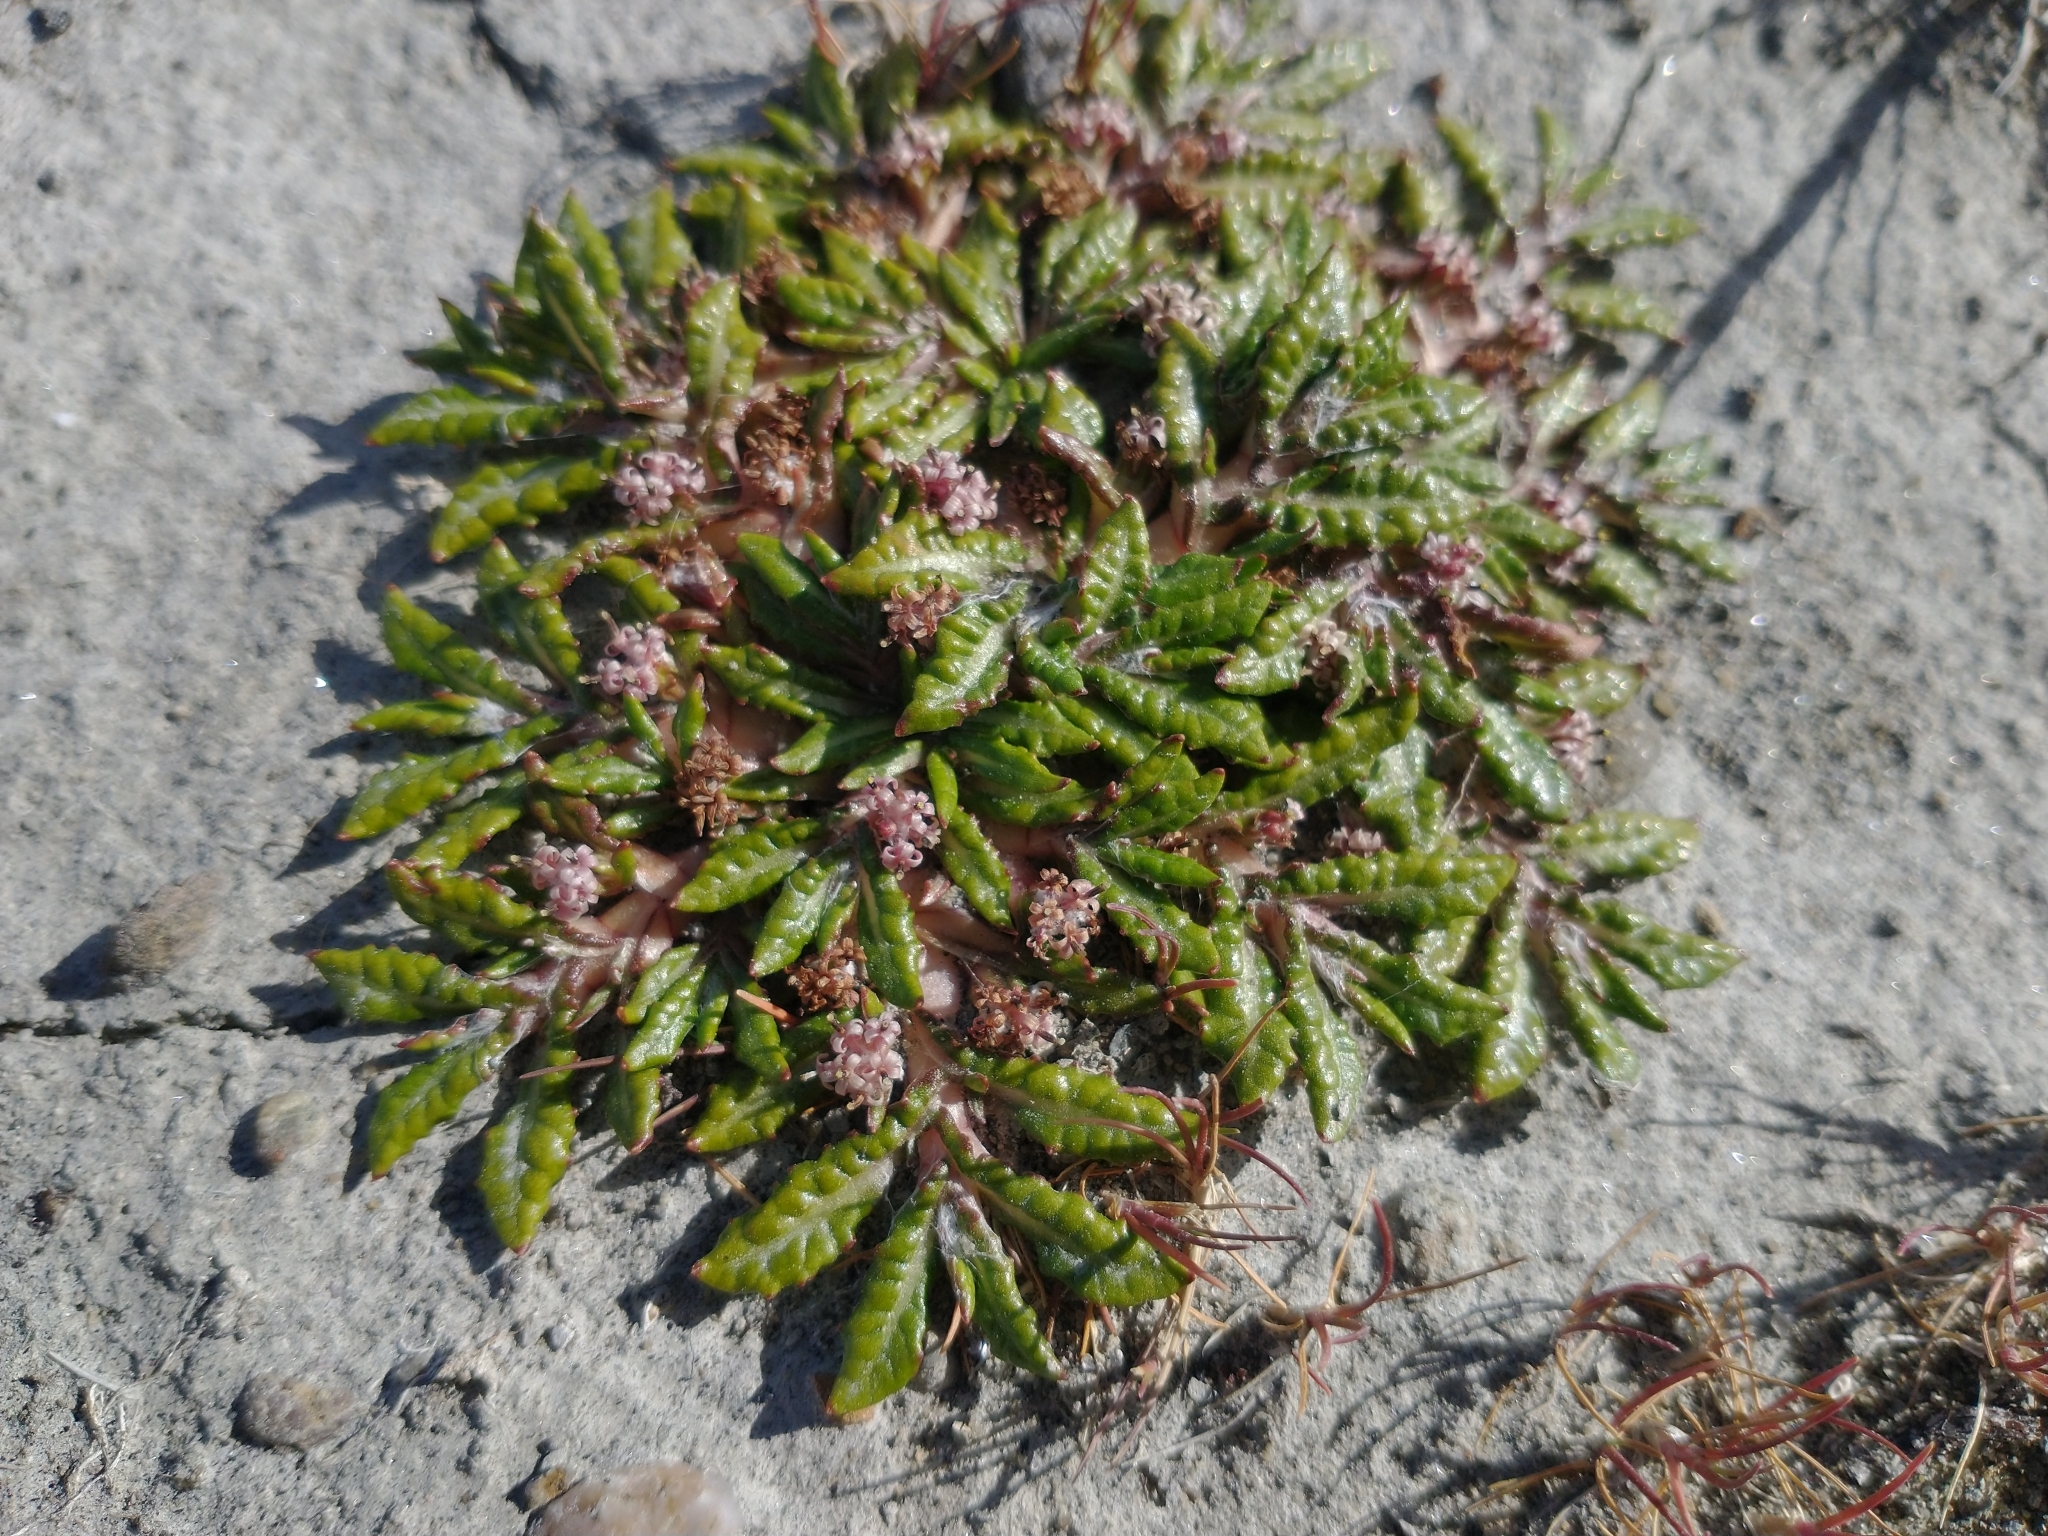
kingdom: Plantae
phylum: Tracheophyta
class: Magnoliopsida
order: Asterales
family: Asteraceae
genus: Eriachaenium
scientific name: Eriachaenium magellanicum
